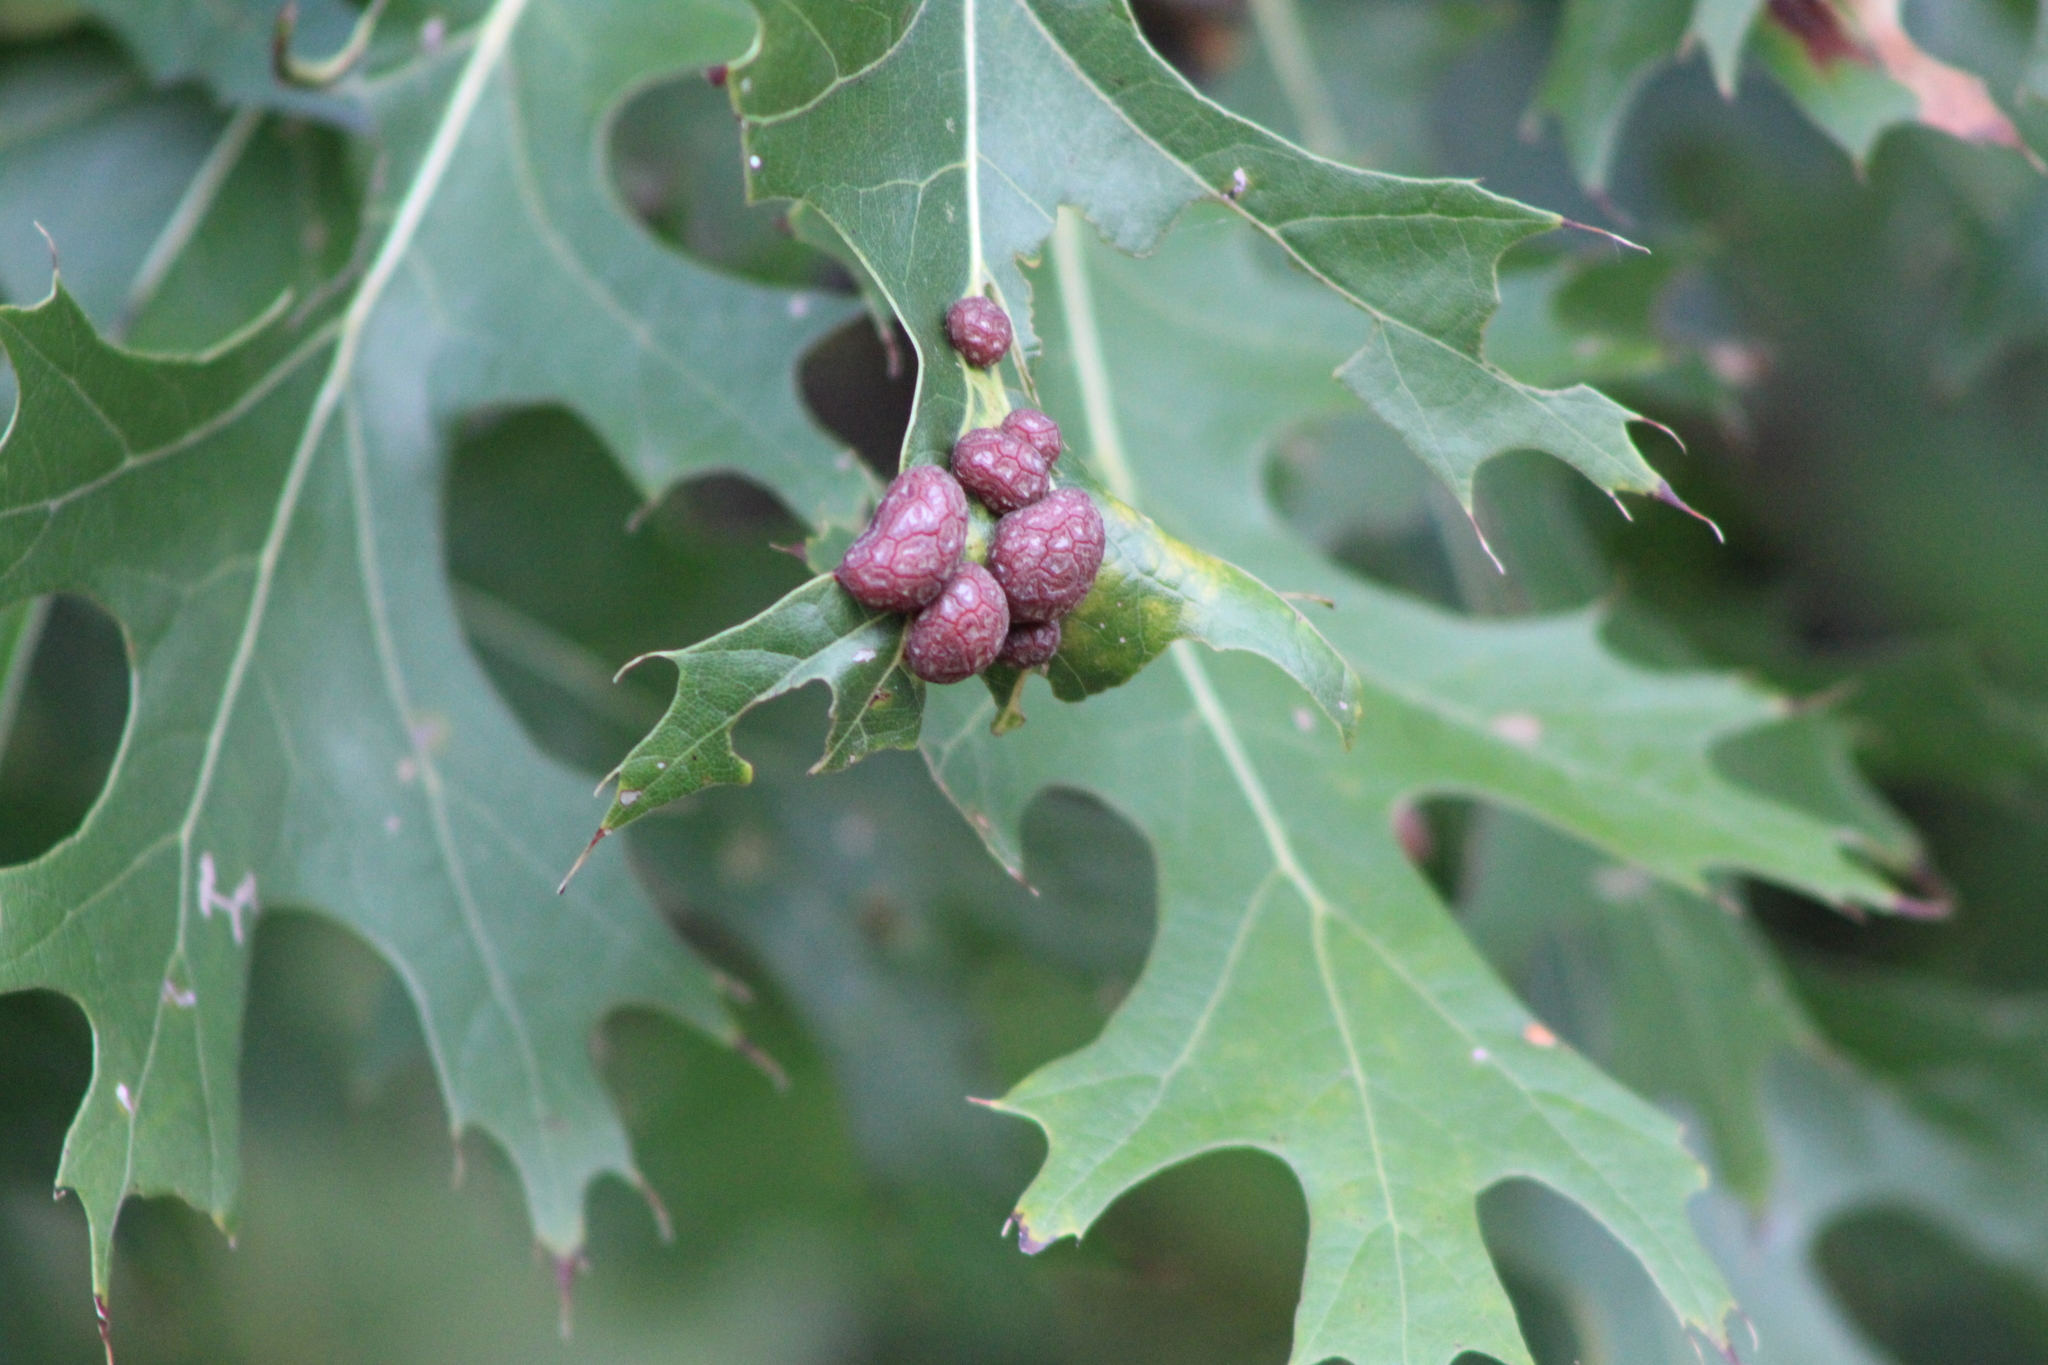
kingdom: Animalia
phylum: Arthropoda
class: Insecta
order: Diptera
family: Cecidomyiidae
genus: Polystepha
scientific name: Polystepha pilulae
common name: Oak leaf gall midge
